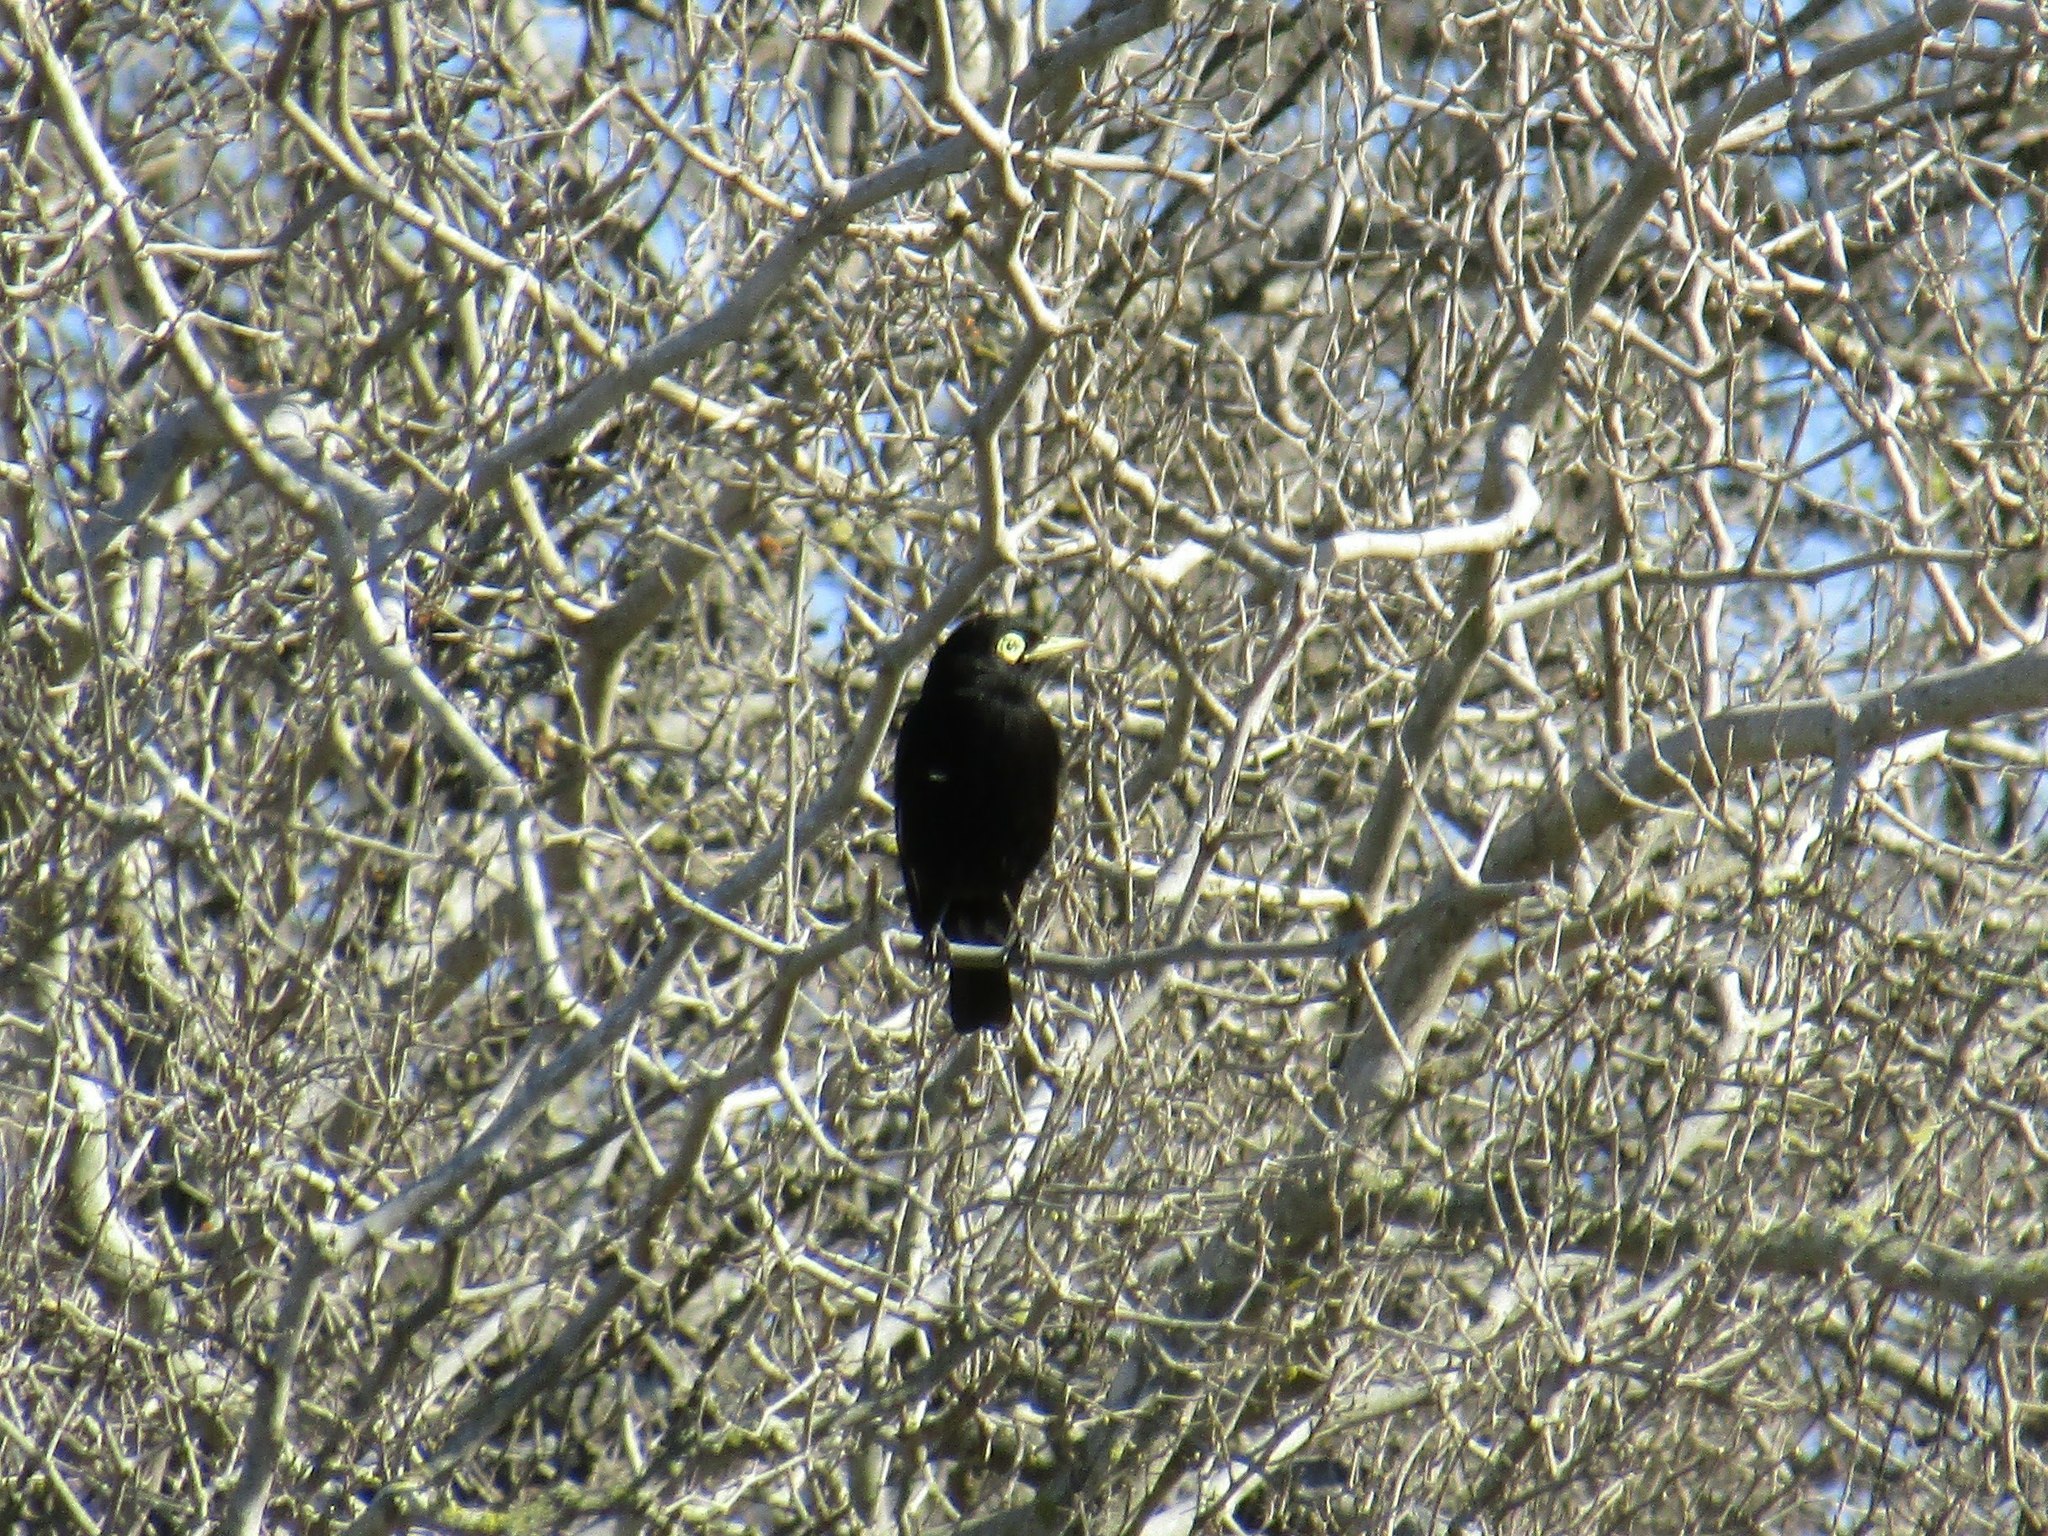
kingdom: Animalia
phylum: Chordata
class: Aves
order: Passeriformes
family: Tyrannidae
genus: Hymenops
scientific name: Hymenops perspicillatus
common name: Spectacled tyrant
